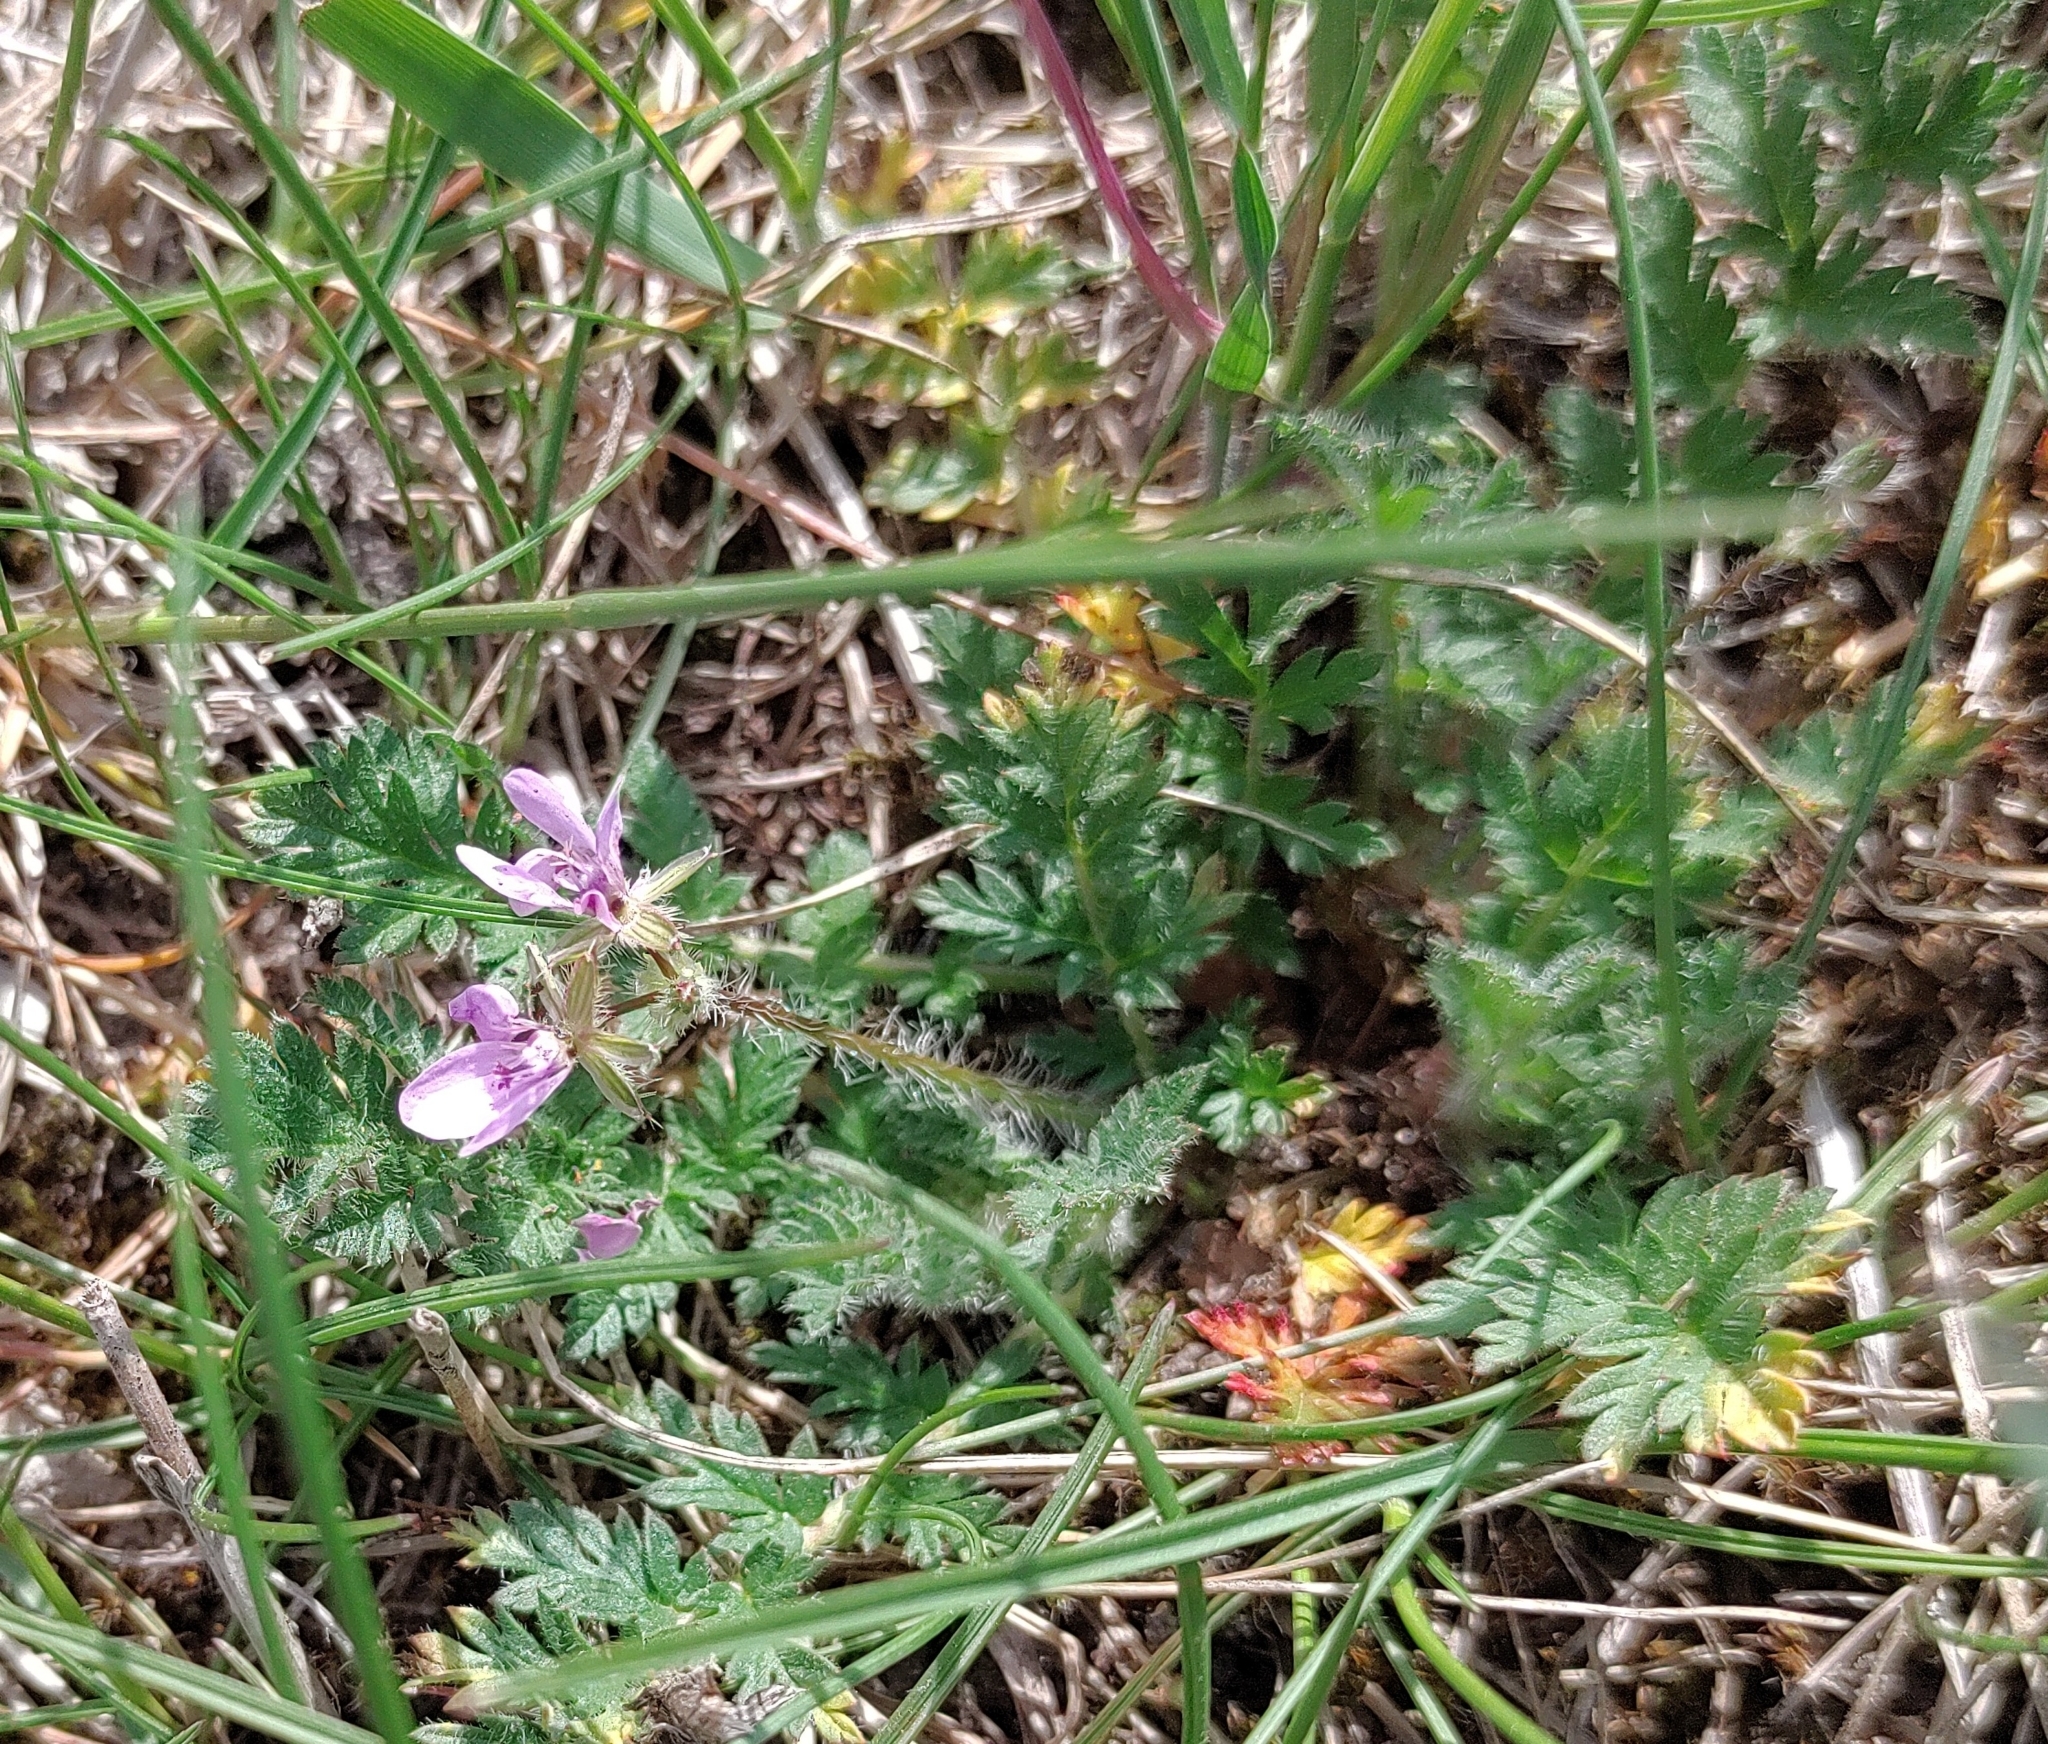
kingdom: Plantae
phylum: Tracheophyta
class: Magnoliopsida
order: Geraniales
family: Geraniaceae
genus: Erodium
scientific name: Erodium cicutarium
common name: Common stork's-bill
